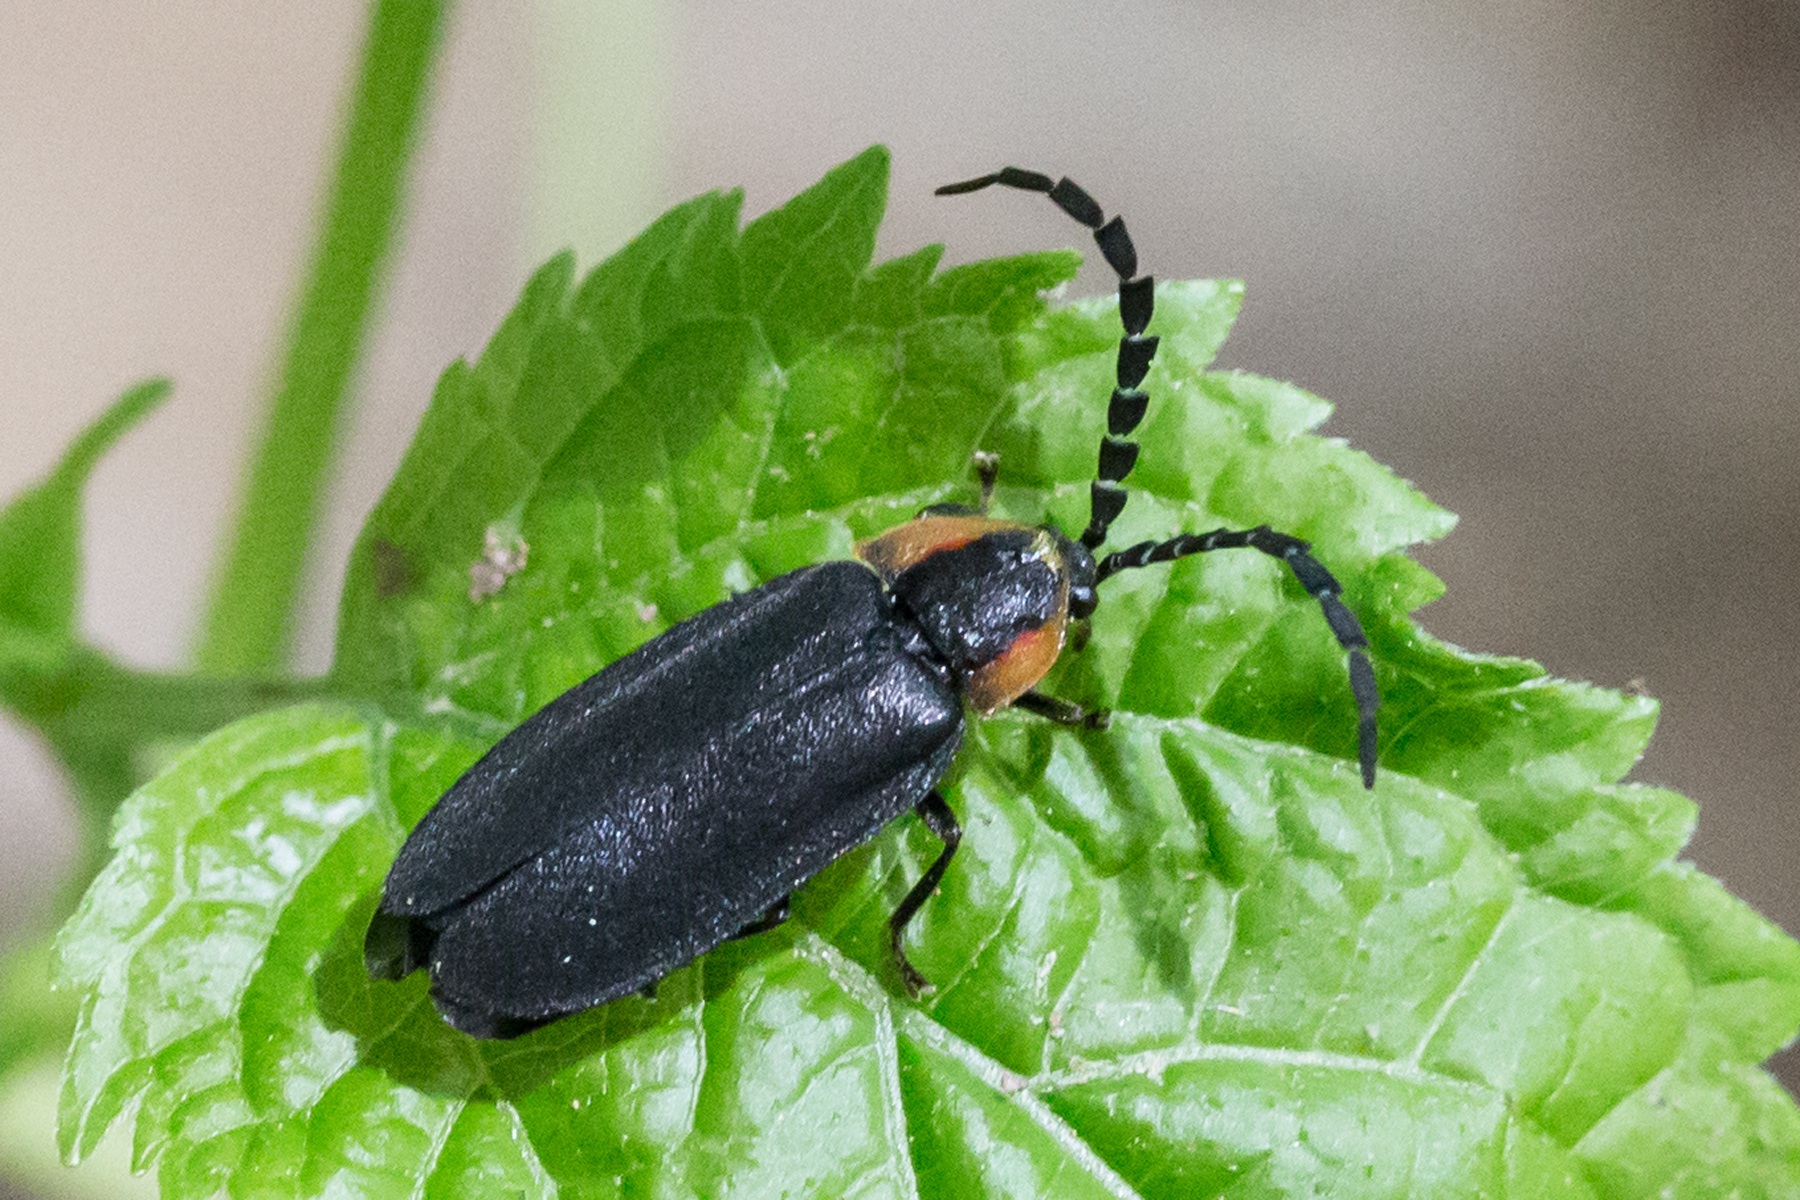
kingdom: Animalia
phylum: Arthropoda
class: Insecta
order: Coleoptera
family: Lampyridae
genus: Lucidota
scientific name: Lucidota atra
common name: Black firefly
